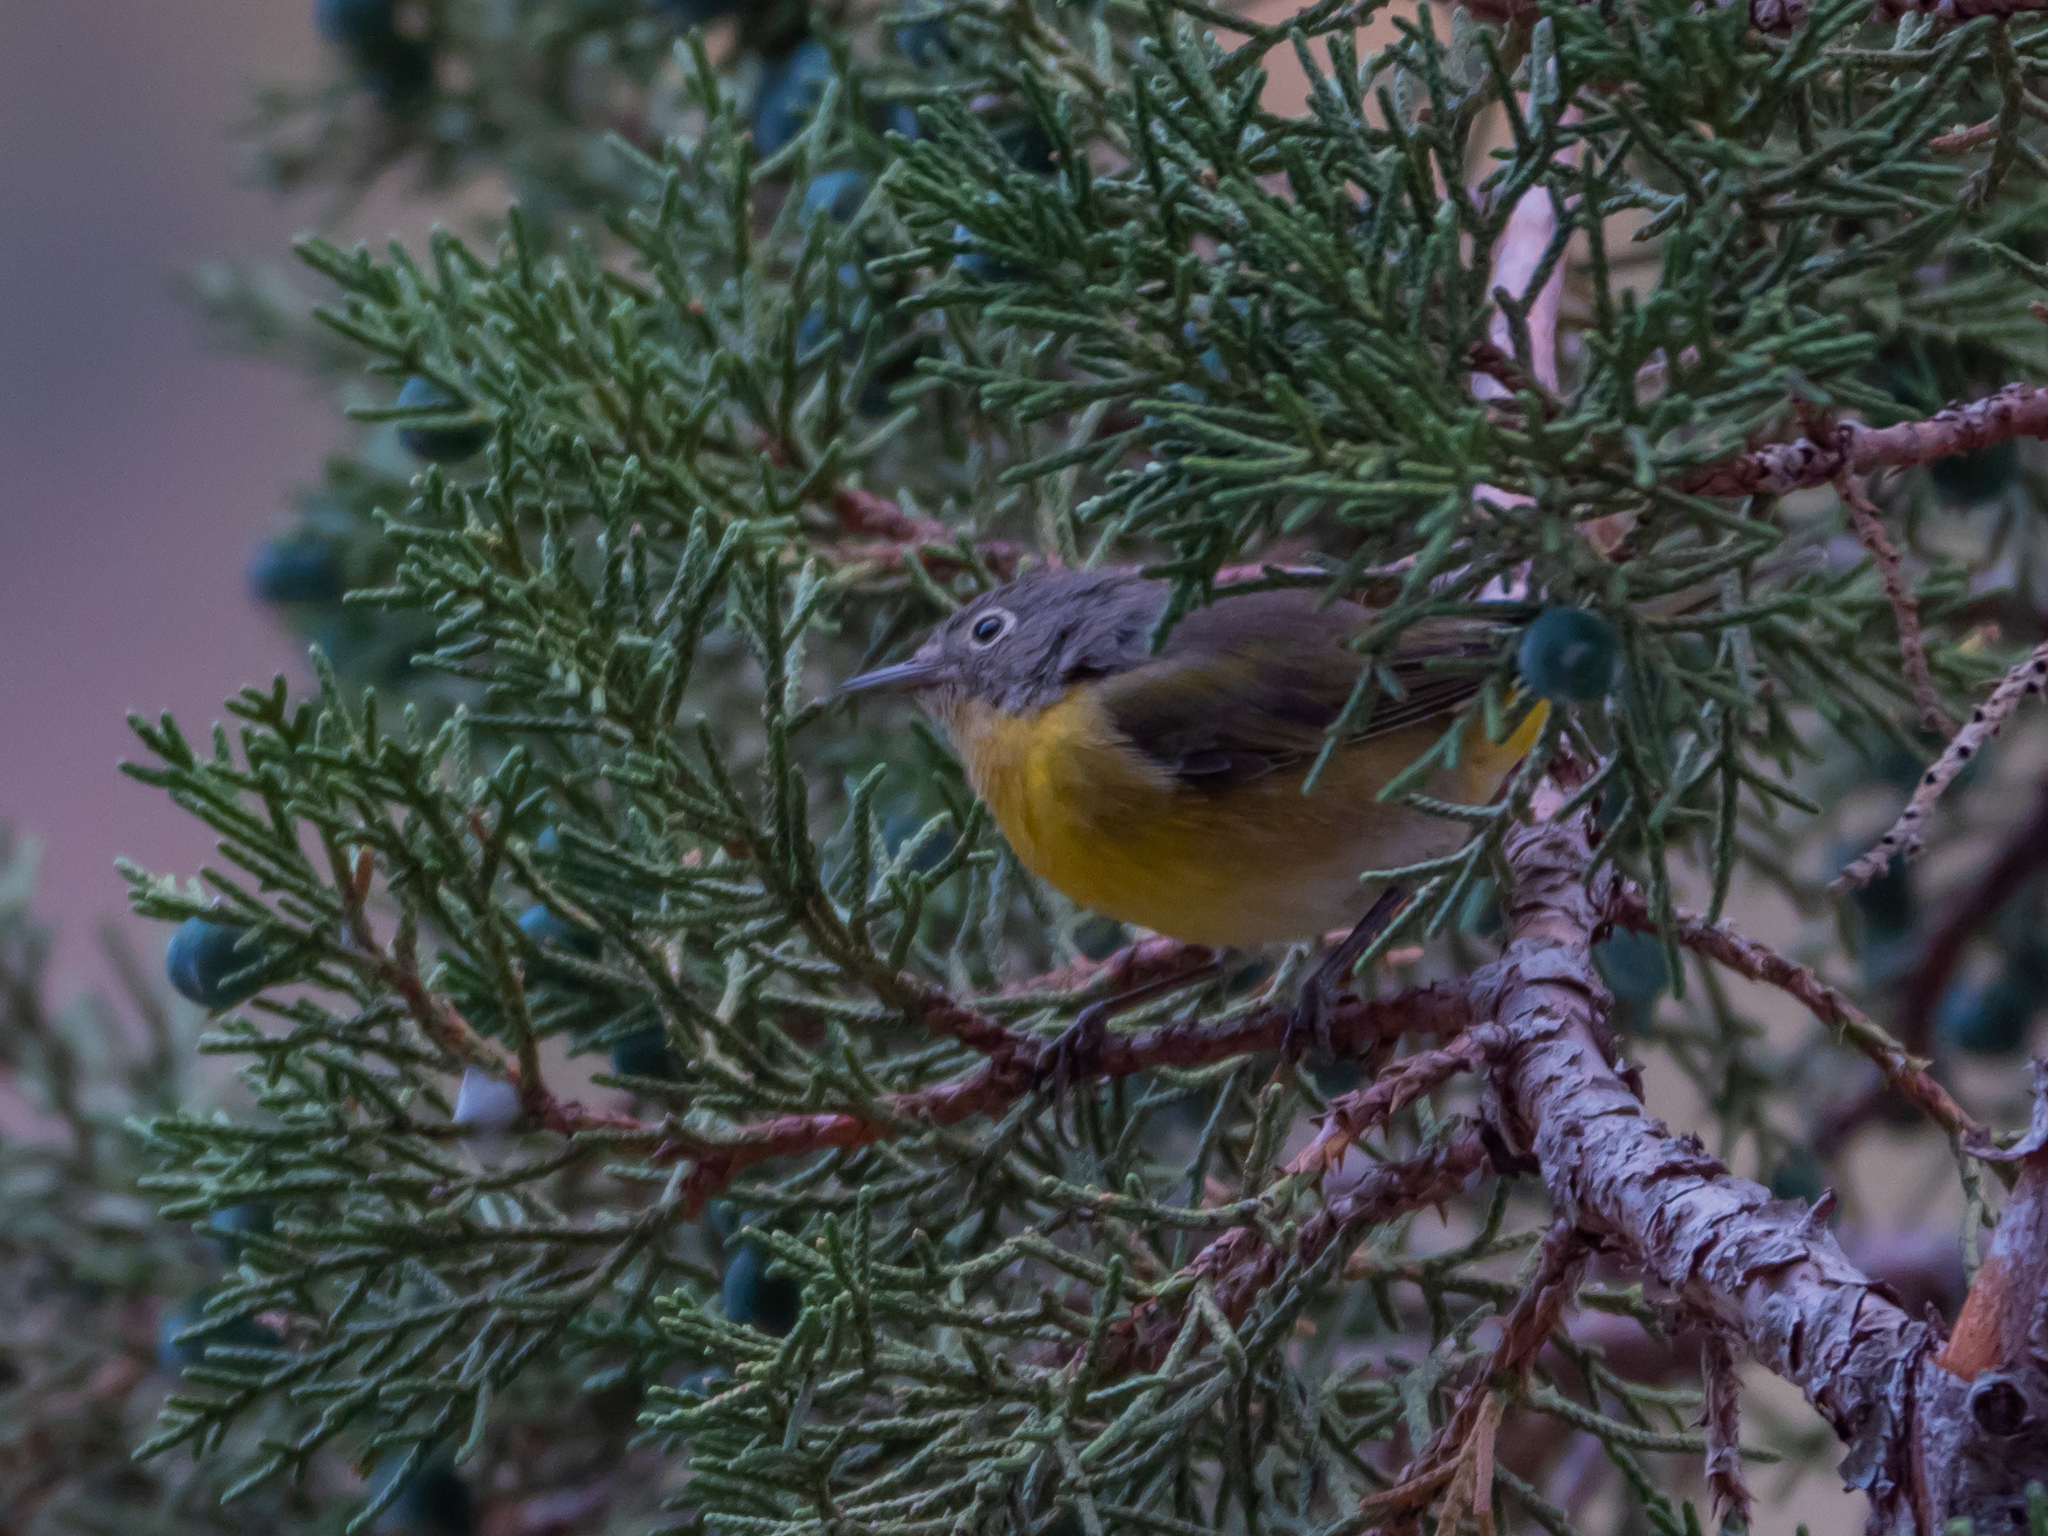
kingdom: Animalia
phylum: Chordata
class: Aves
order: Passeriformes
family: Parulidae
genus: Leiothlypis
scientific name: Leiothlypis ruficapilla
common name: Nashville warbler
